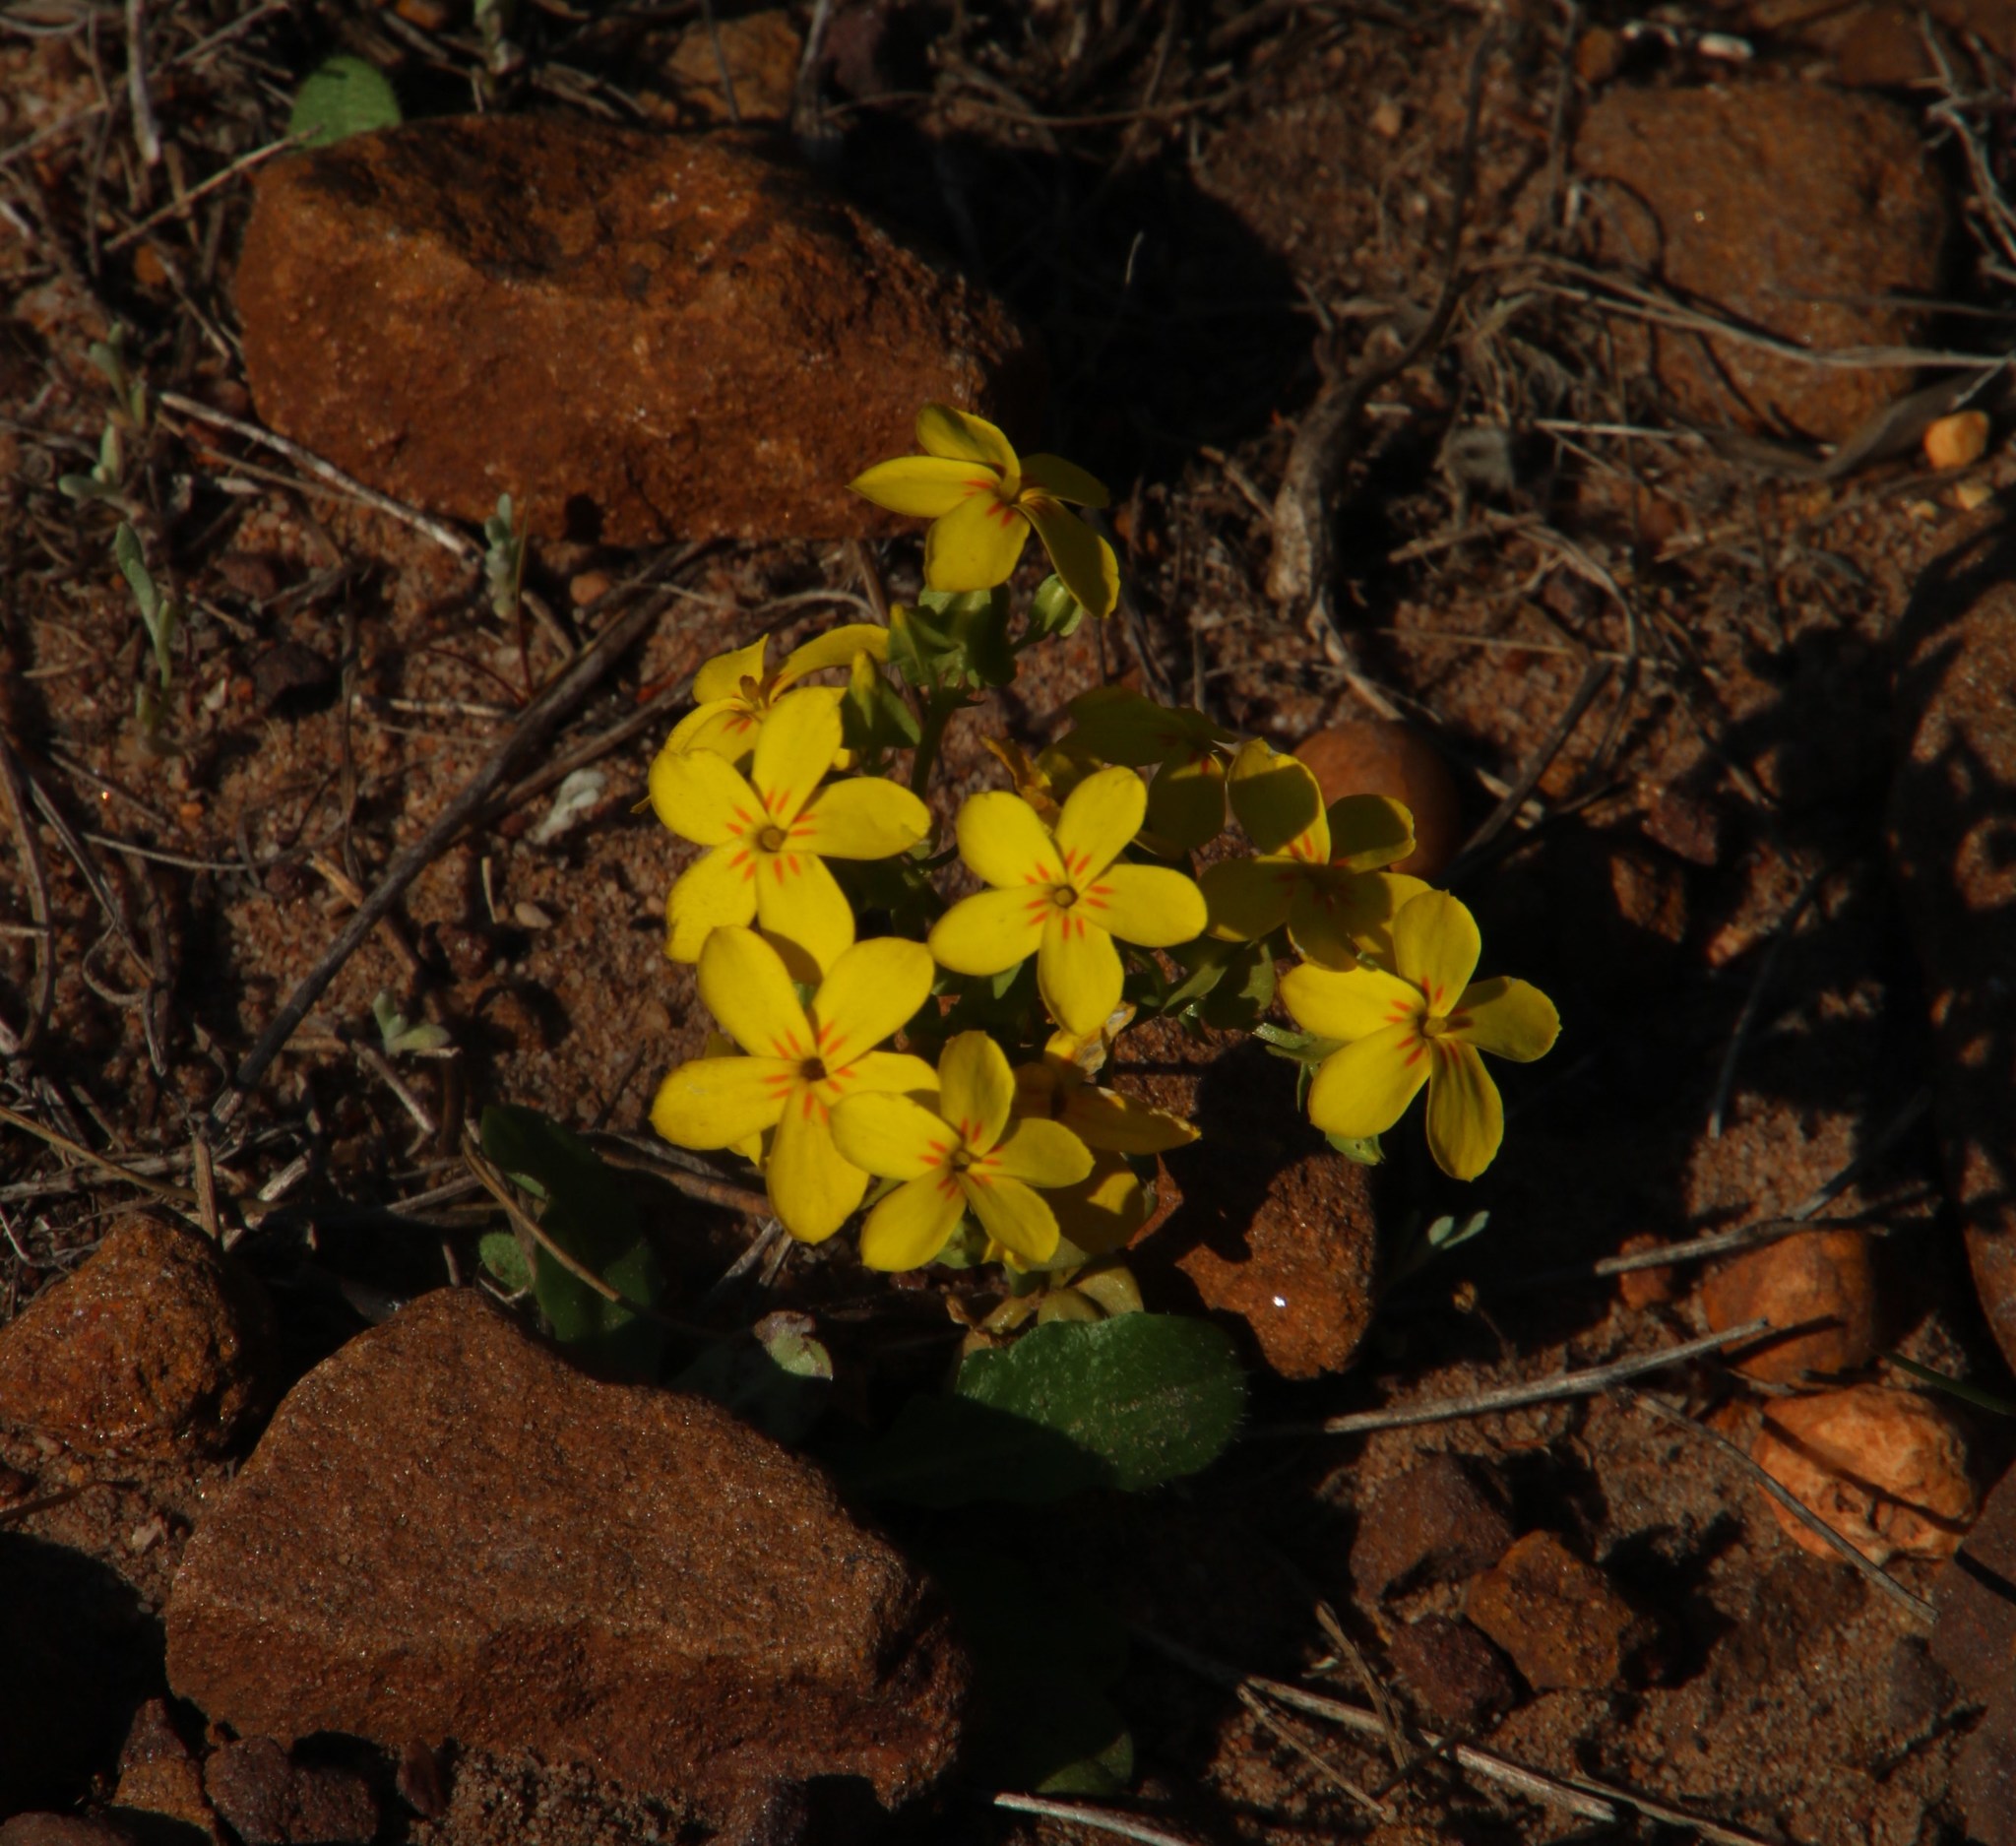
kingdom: Plantae
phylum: Tracheophyta
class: Magnoliopsida
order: Gentianales
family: Gentianaceae
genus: Sebaea
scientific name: Sebaea exacoides
